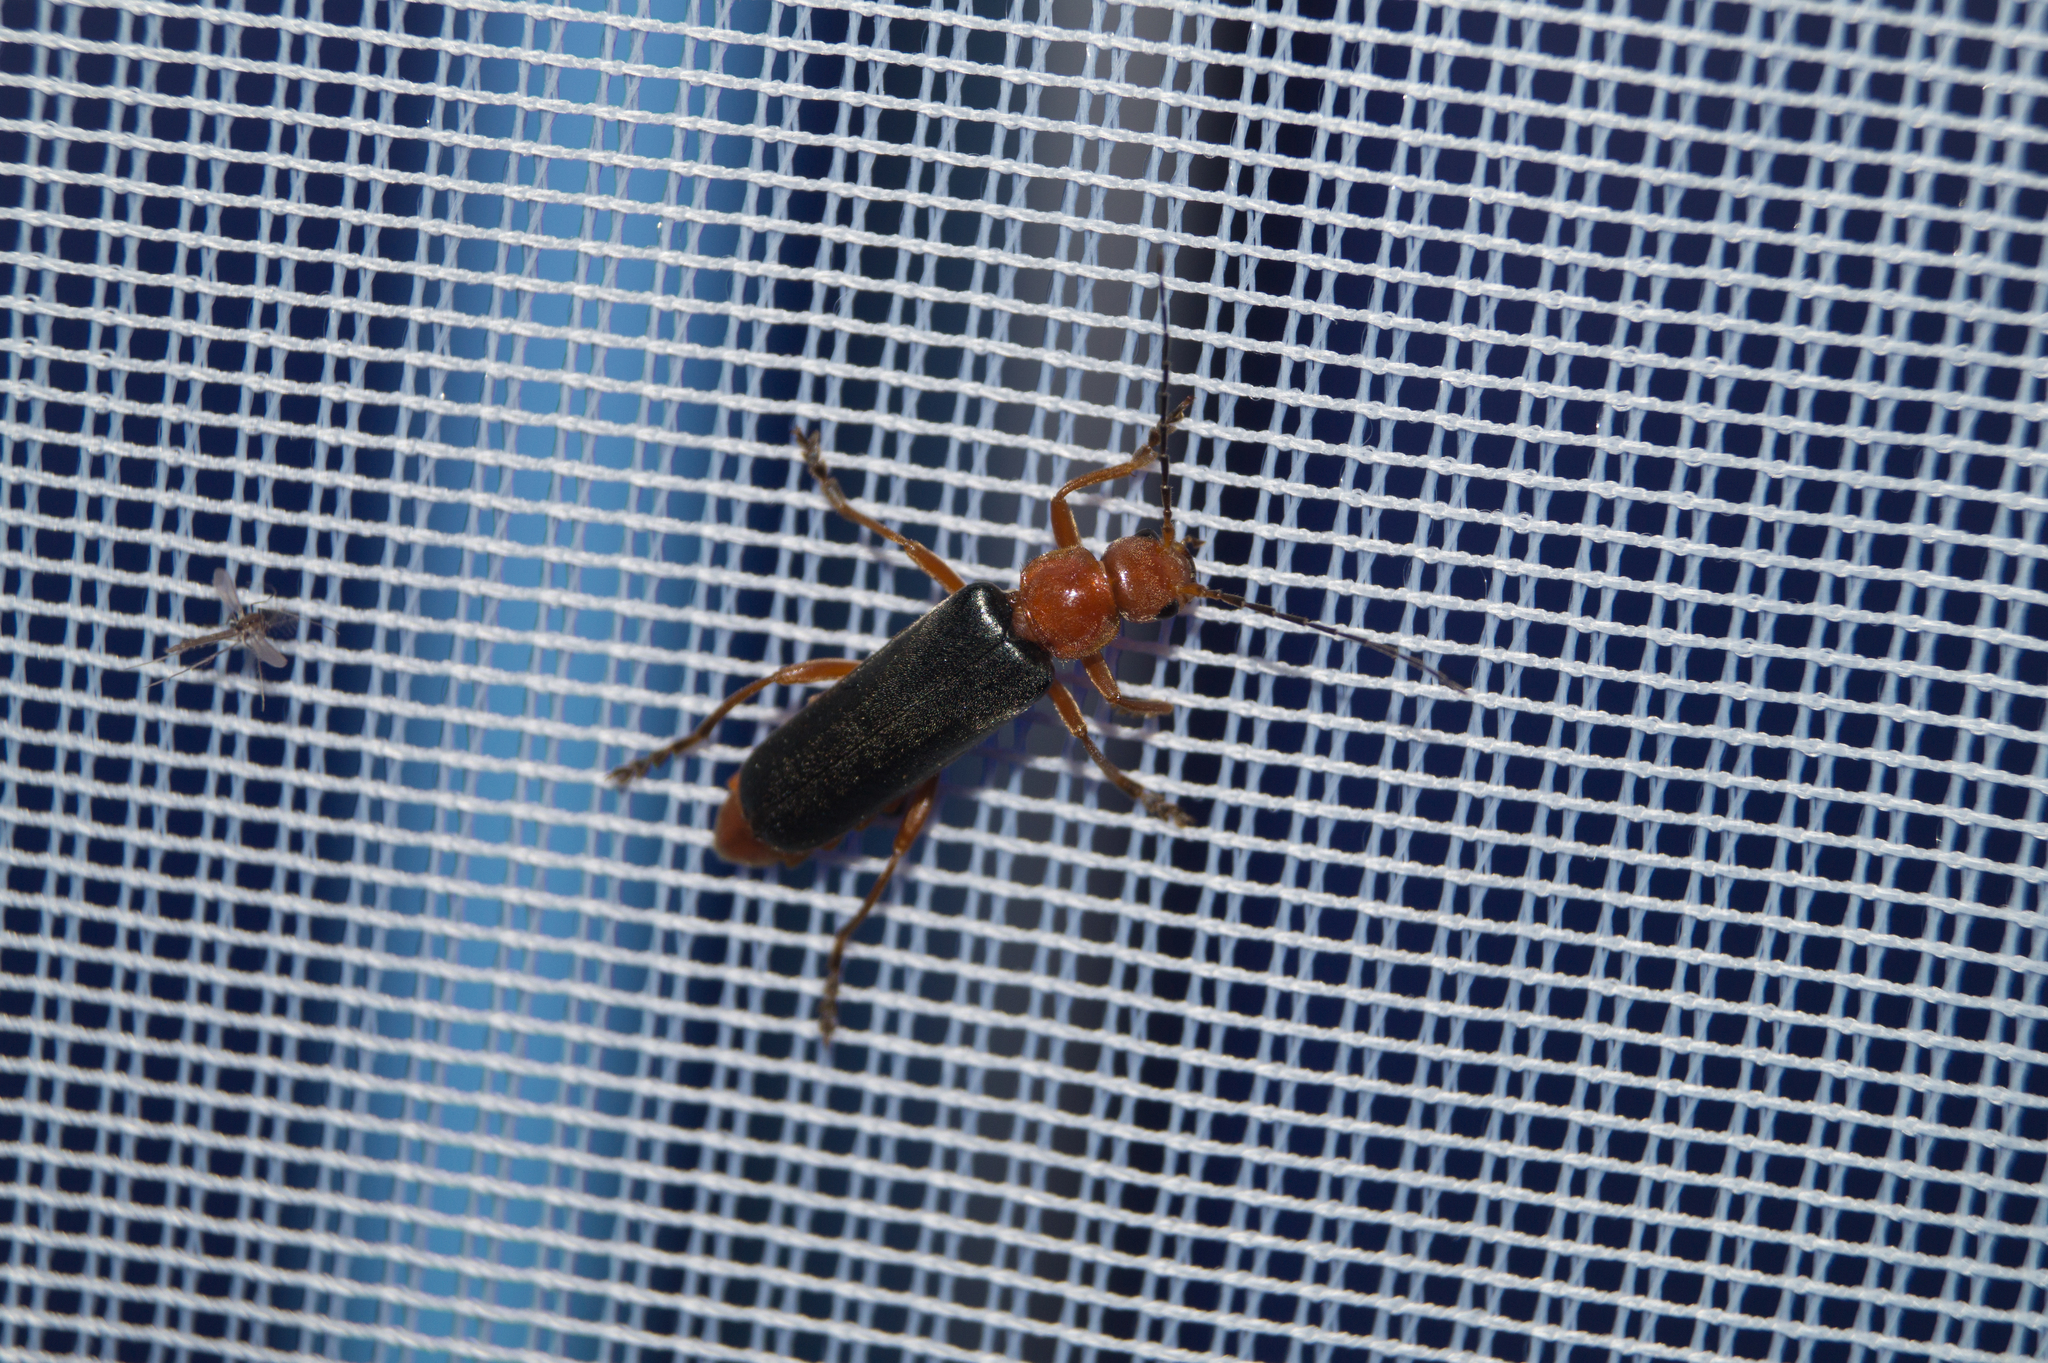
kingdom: Animalia
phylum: Arthropoda
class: Insecta
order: Coleoptera
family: Cantharidae
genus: Ancistronycha
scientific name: Ancistronycha tigurina
